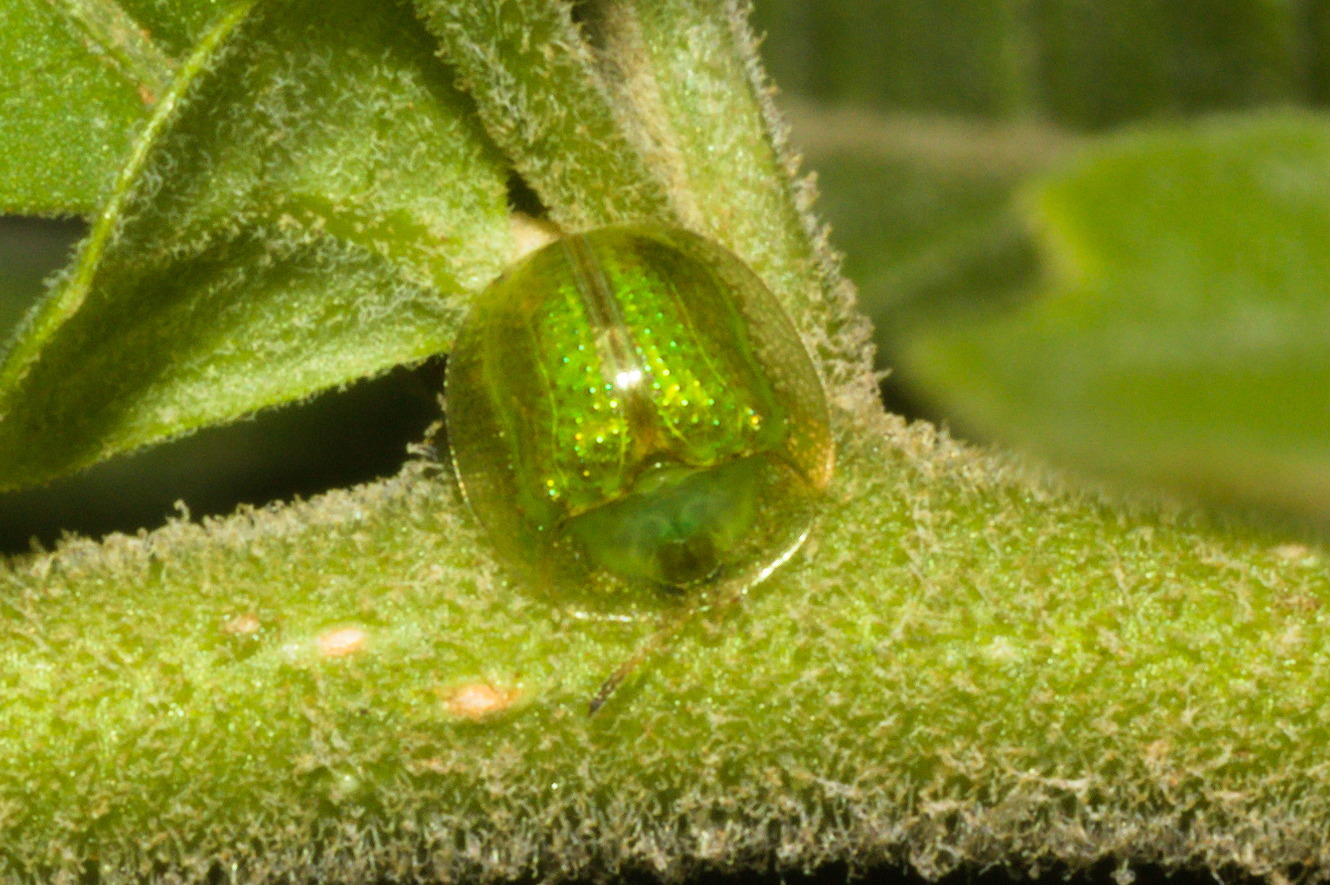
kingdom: Animalia
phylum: Arthropoda
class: Insecta
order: Coleoptera
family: Chrysomelidae
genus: Plagiometriona
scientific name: Plagiometriona herbea
